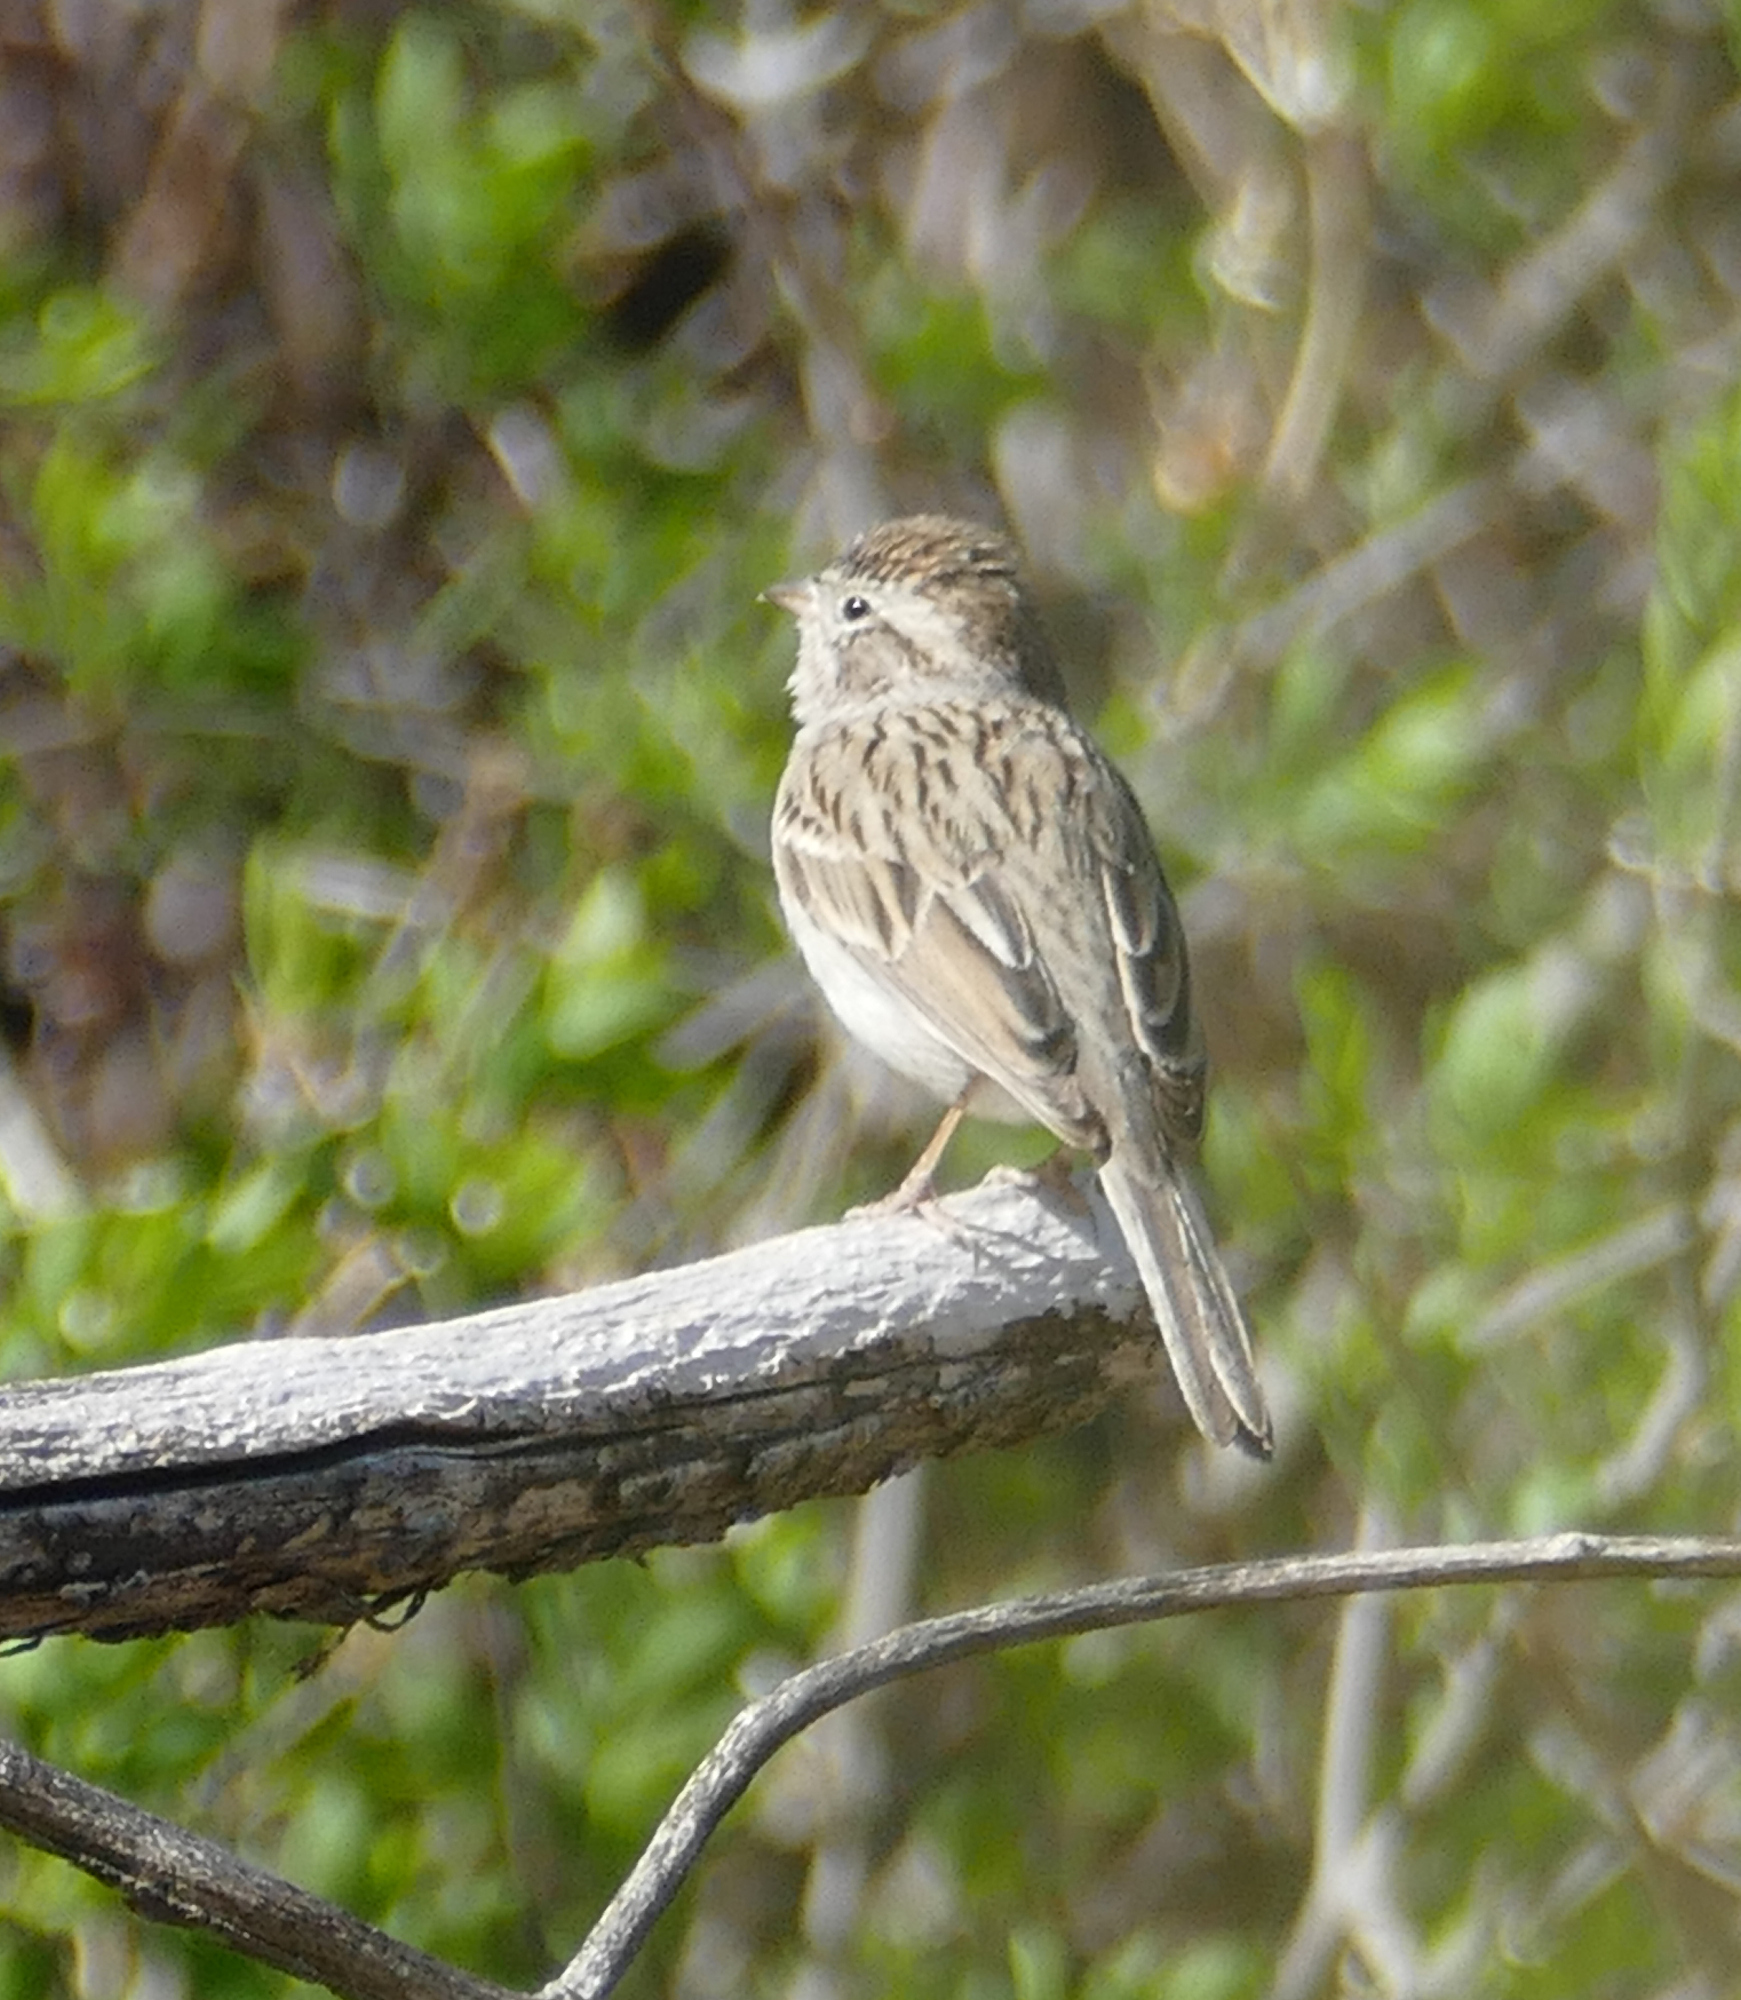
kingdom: Animalia
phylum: Chordata
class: Aves
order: Passeriformes
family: Passerellidae
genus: Spizella
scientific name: Spizella breweri
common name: Brewer's sparrow
